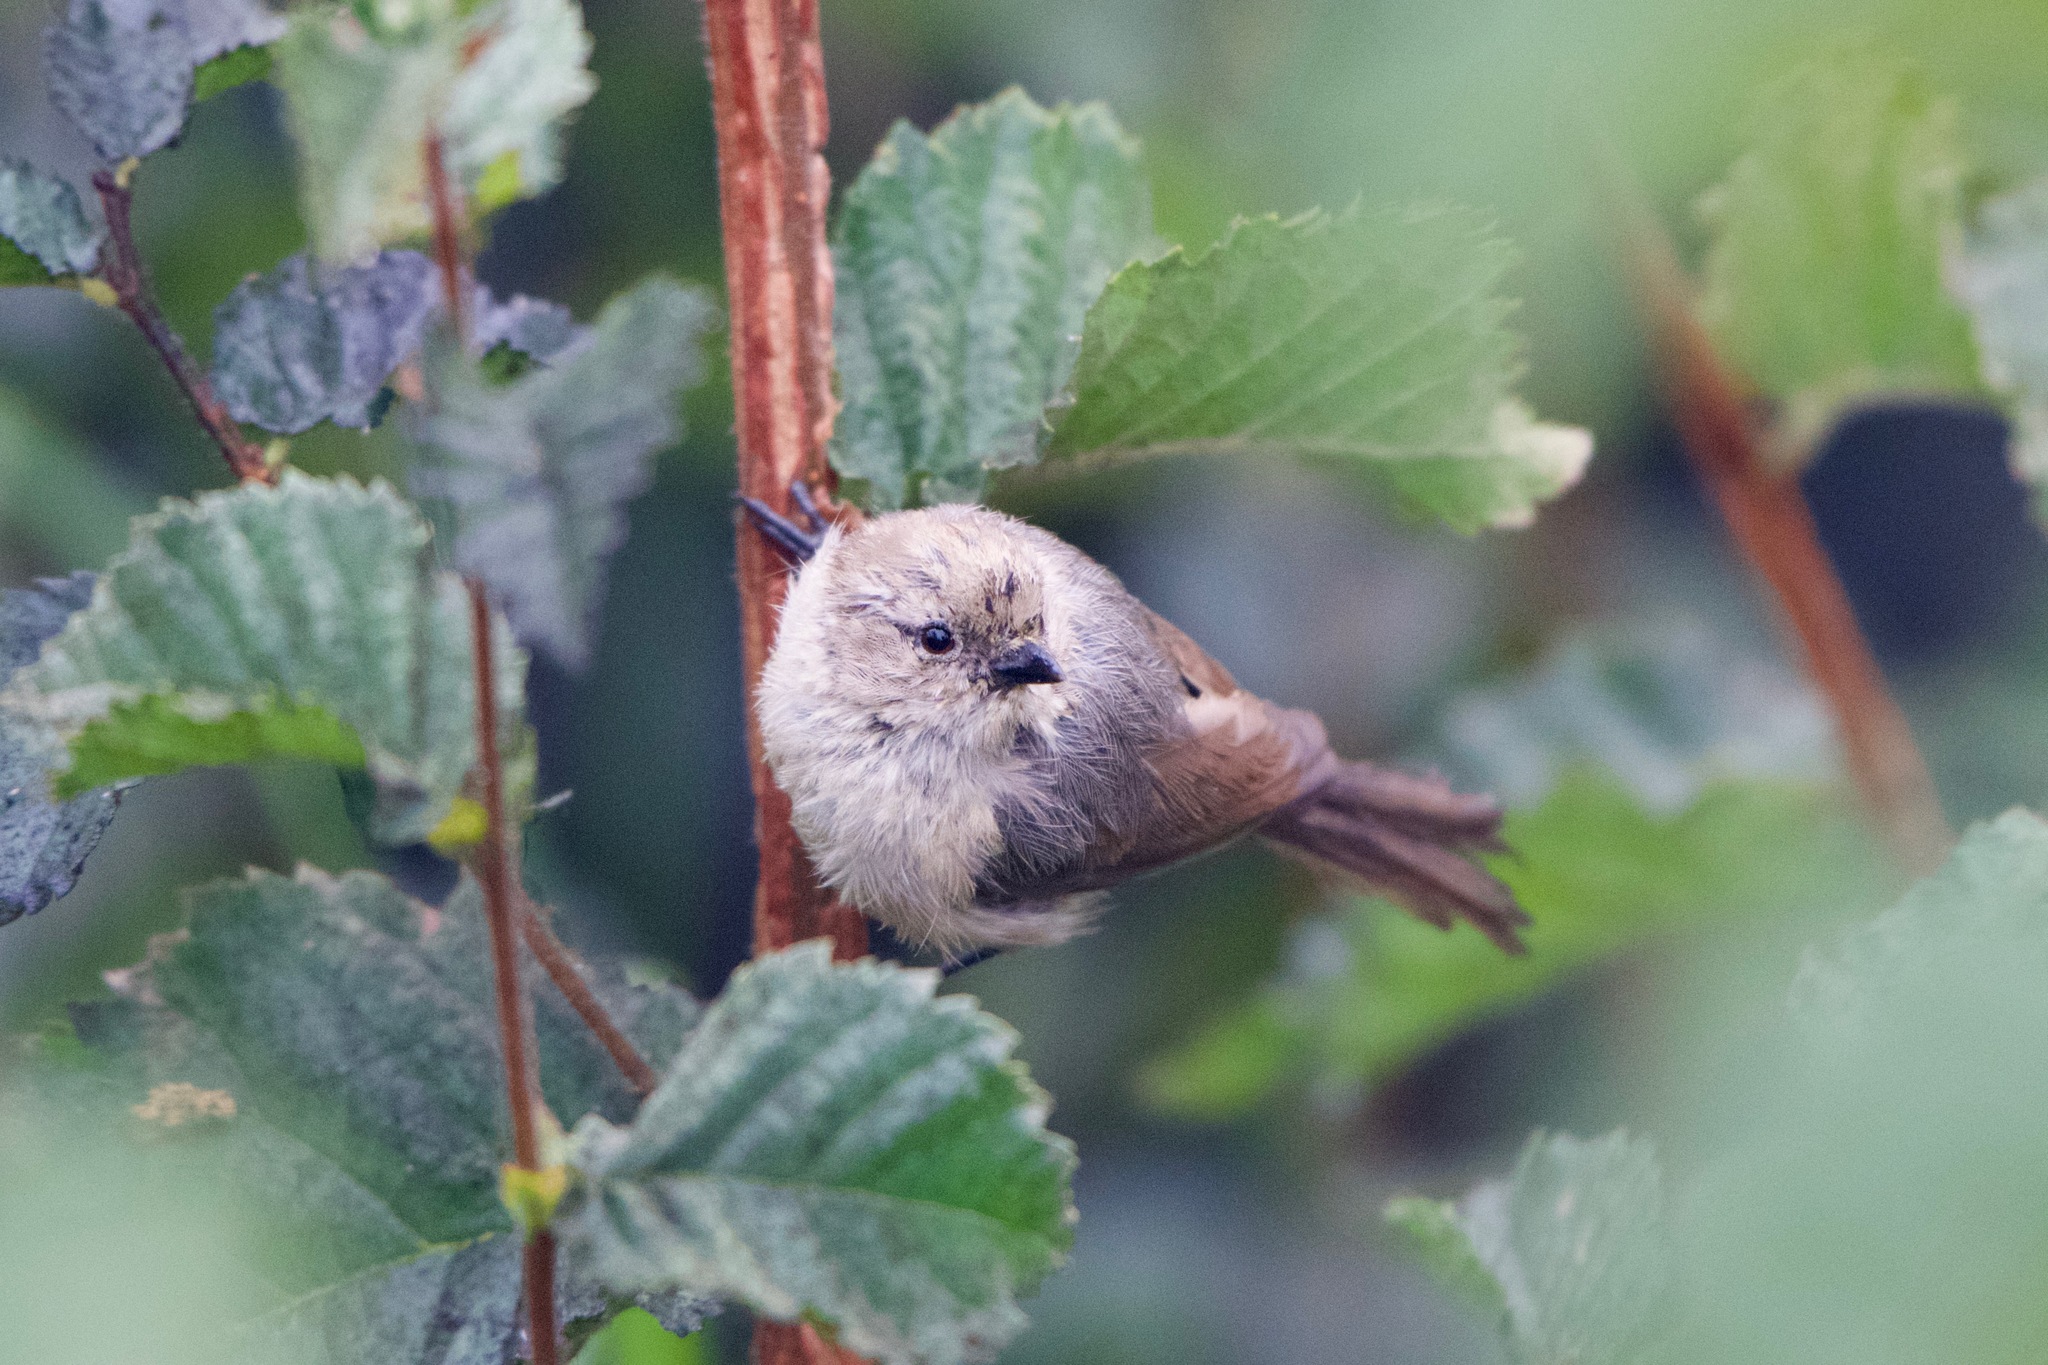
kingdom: Animalia
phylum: Chordata
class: Aves
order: Passeriformes
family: Aegithalidae
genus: Psaltriparus
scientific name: Psaltriparus minimus
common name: American bushtit
